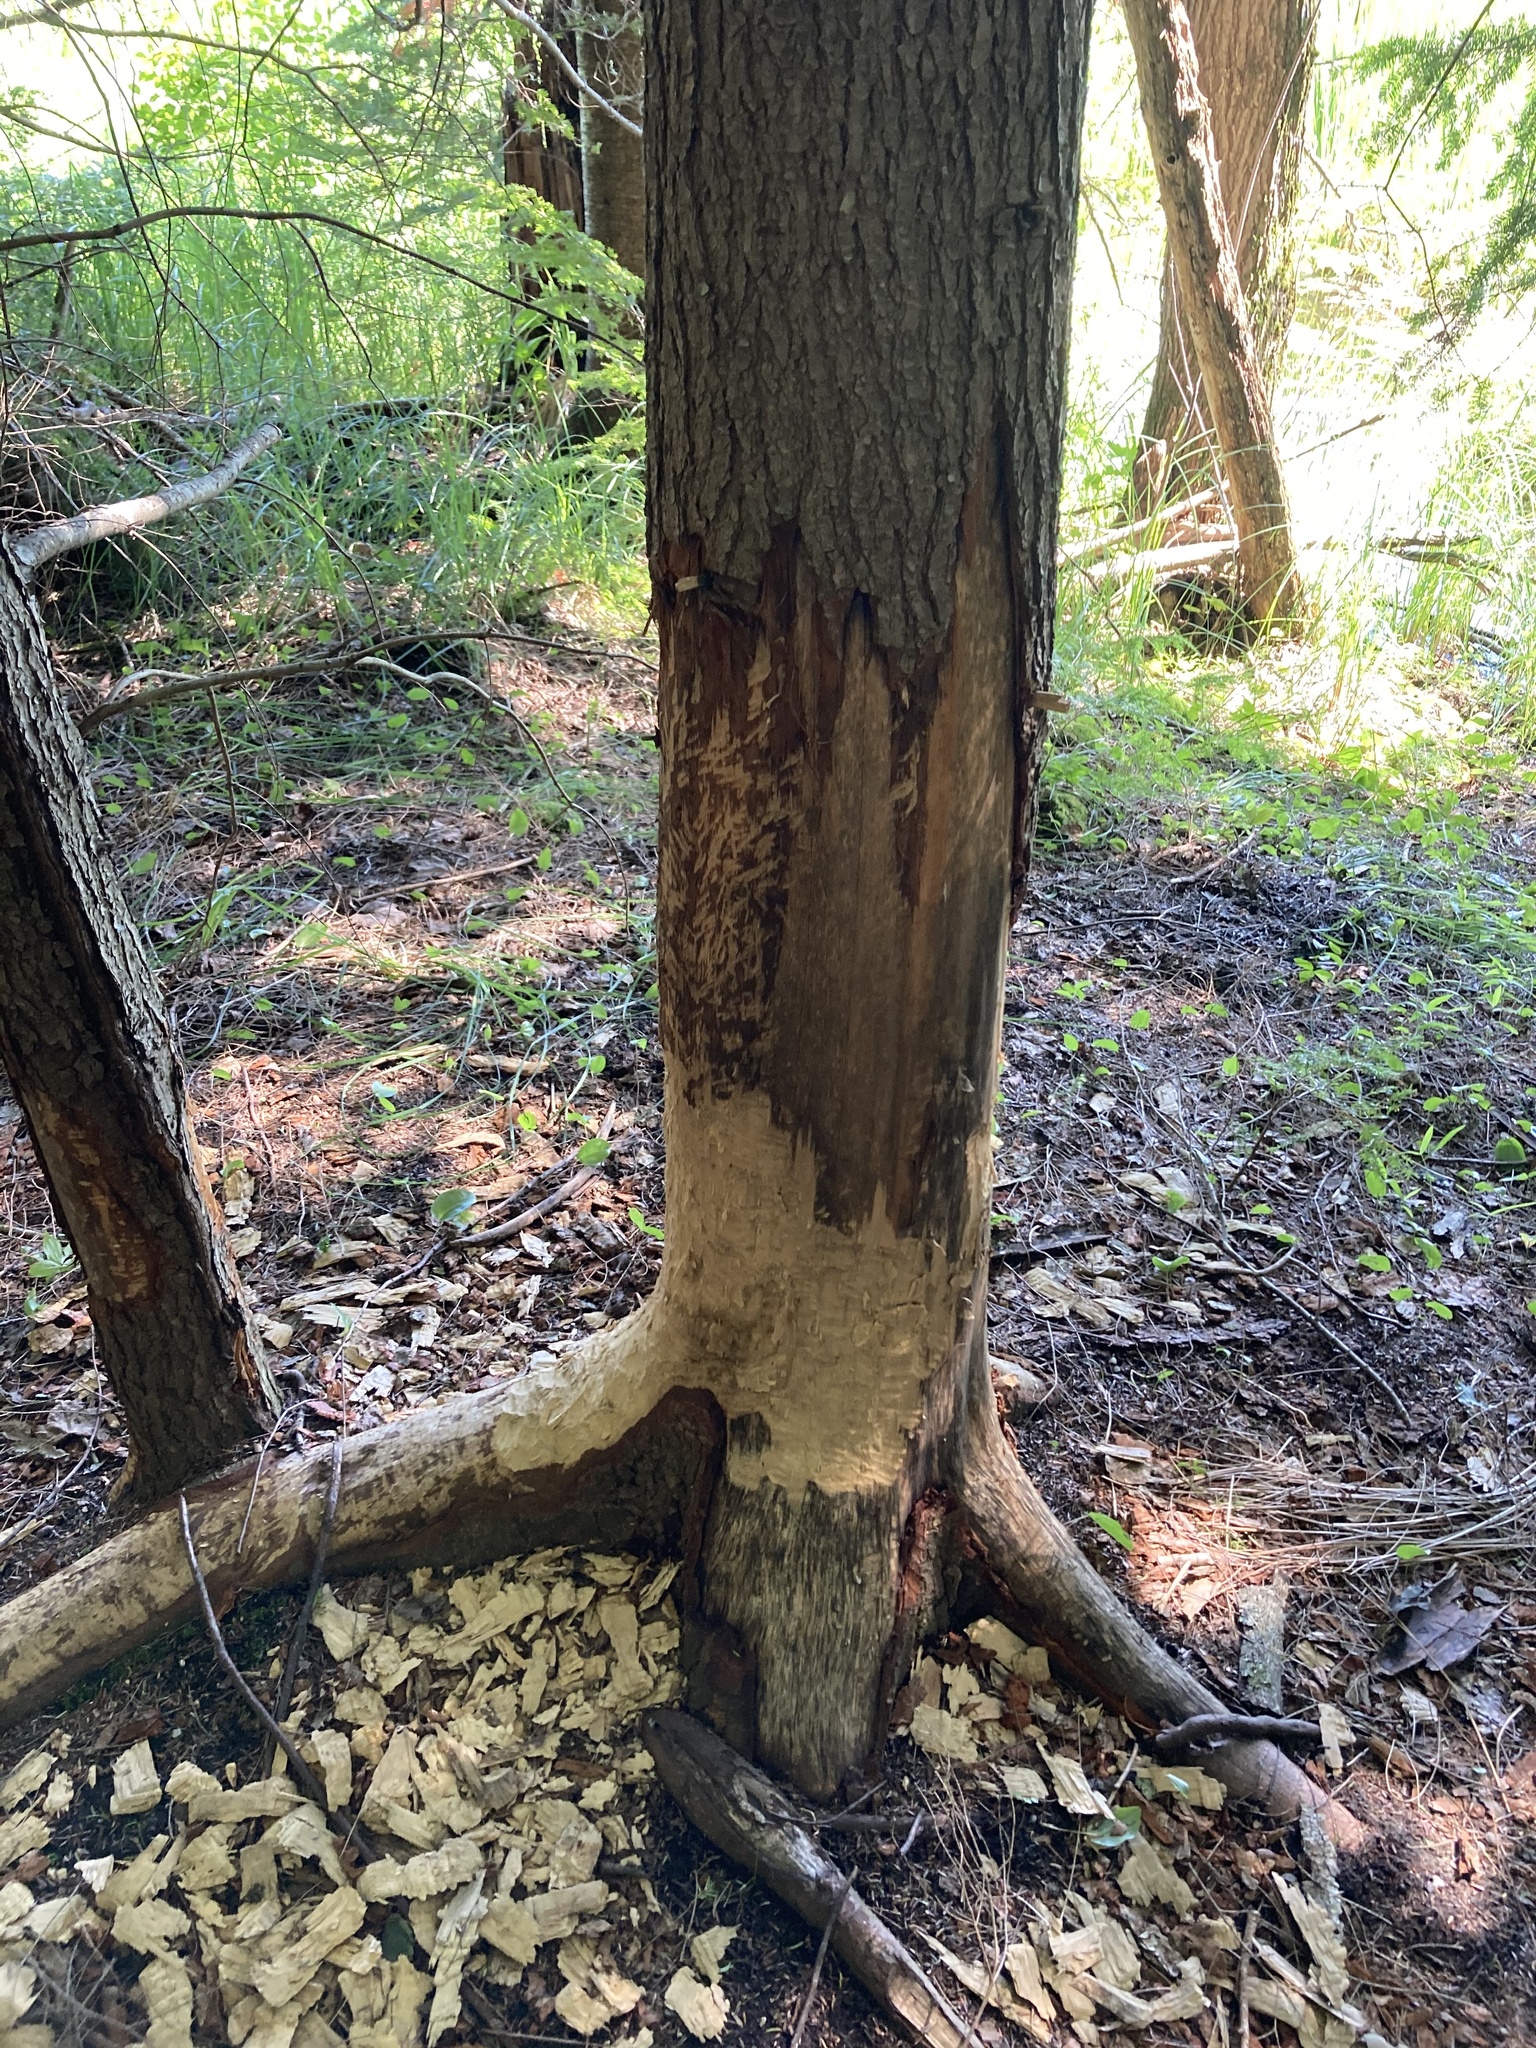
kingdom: Animalia
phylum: Chordata
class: Mammalia
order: Rodentia
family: Castoridae
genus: Castor
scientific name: Castor canadensis
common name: American beaver
